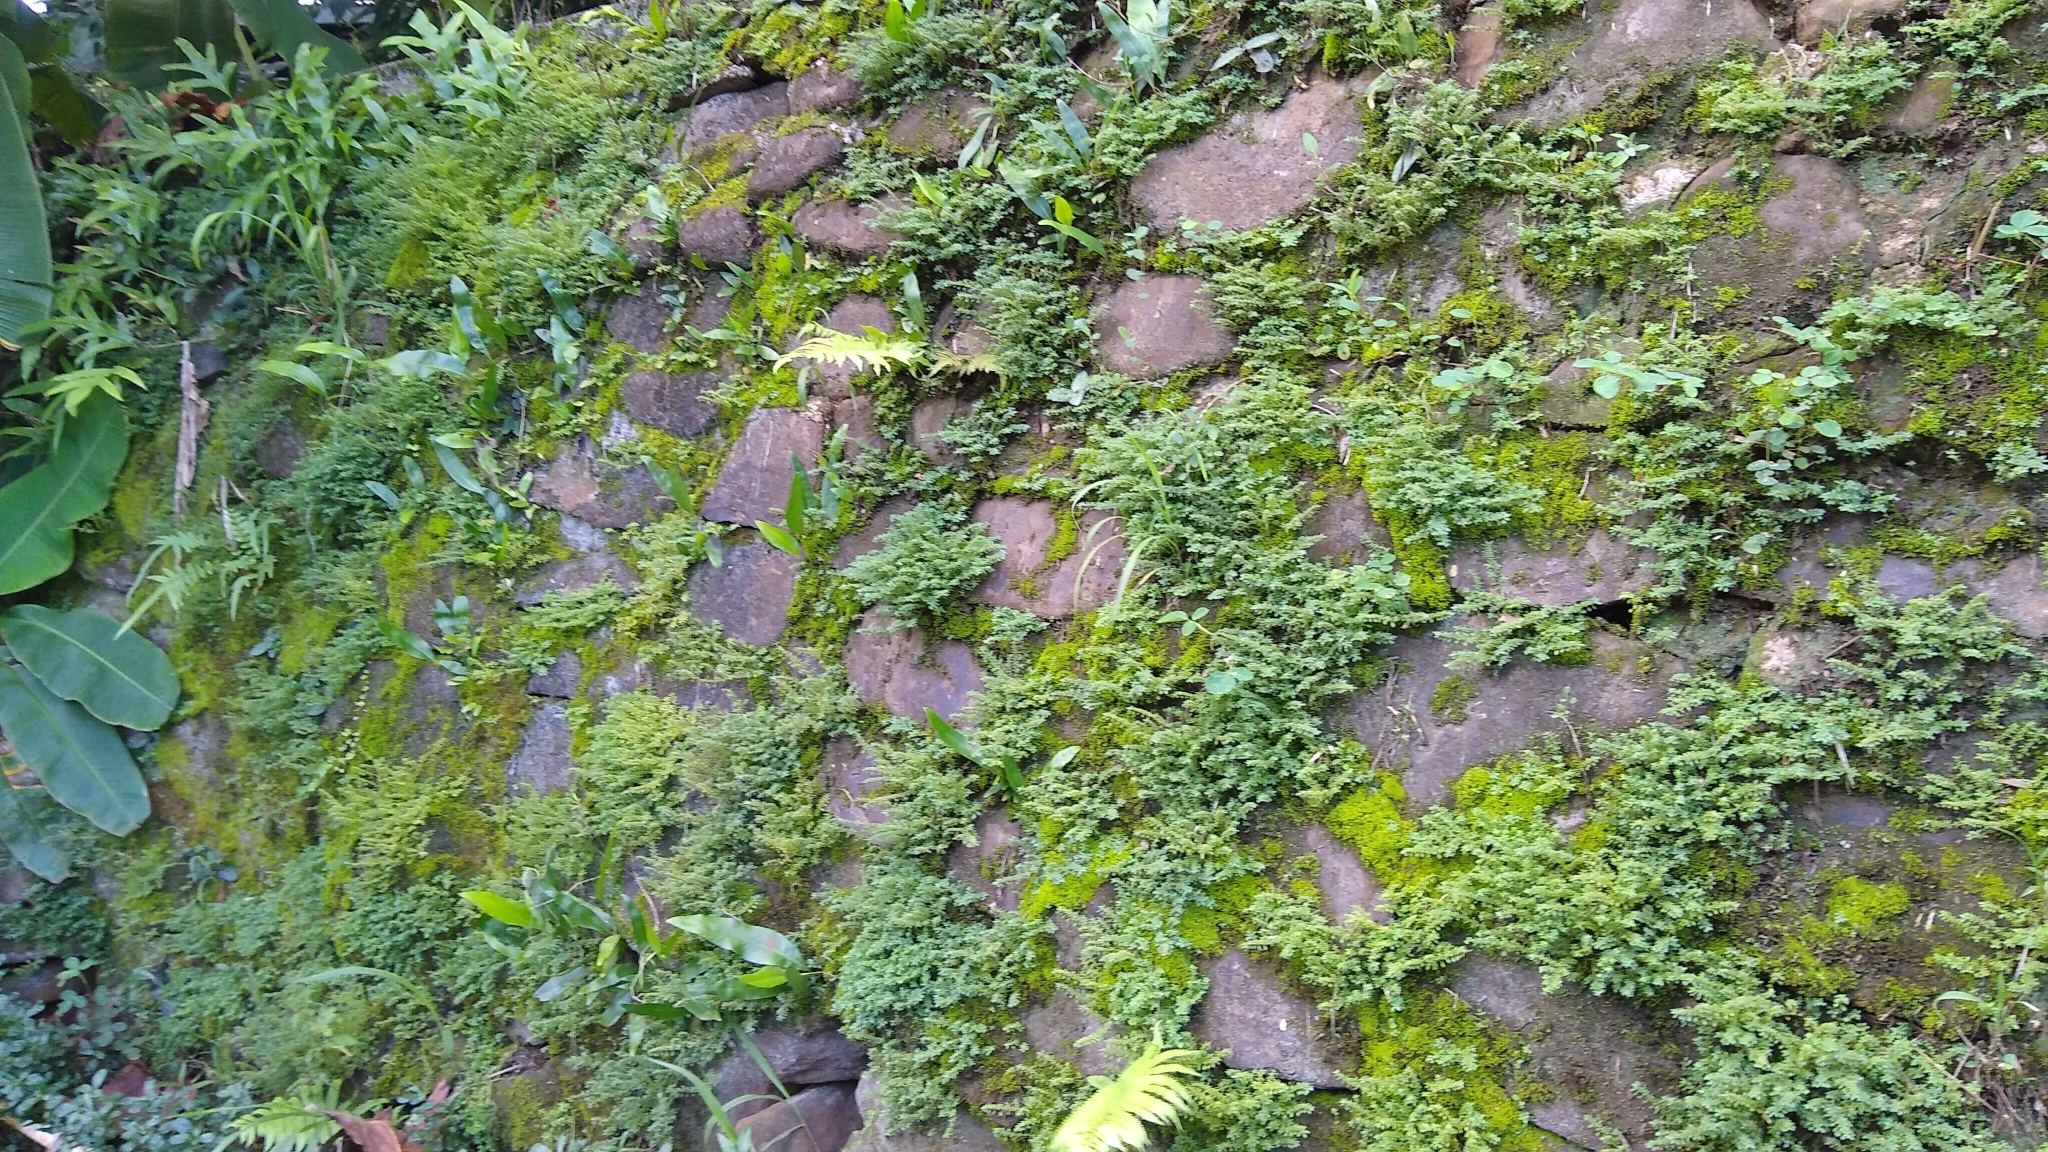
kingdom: Plantae
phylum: Tracheophyta
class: Magnoliopsida
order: Rosales
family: Urticaceae
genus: Pilea
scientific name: Pilea microphylla
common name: Artillery-plant
